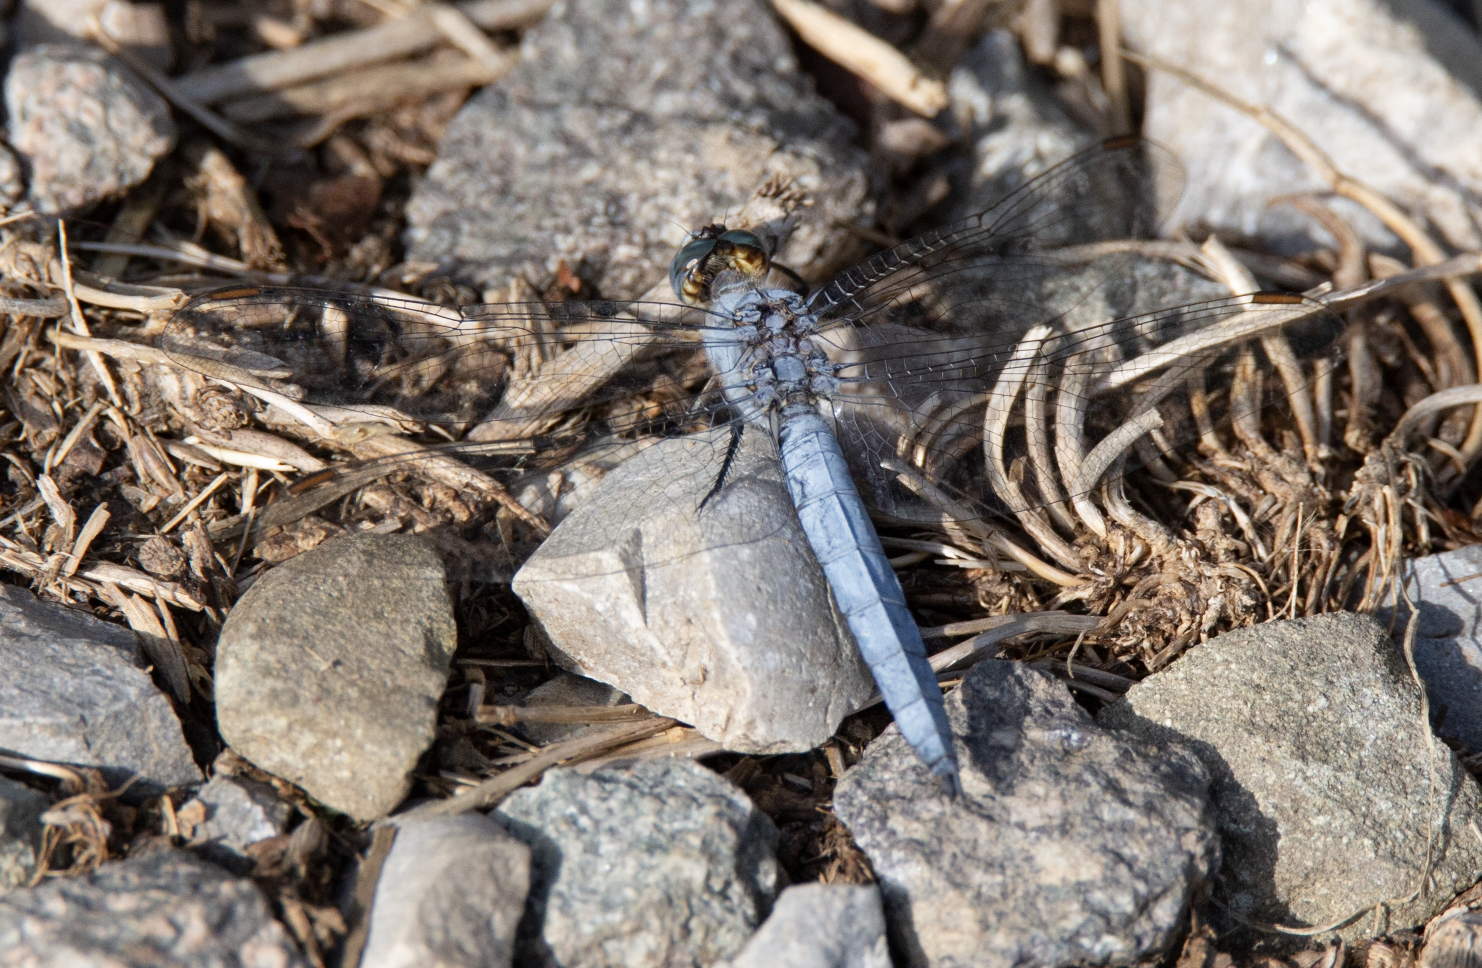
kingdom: Animalia
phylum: Arthropoda
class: Insecta
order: Odonata
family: Libellulidae
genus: Orthetrum
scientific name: Orthetrum brunneum
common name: Southern skimmer
